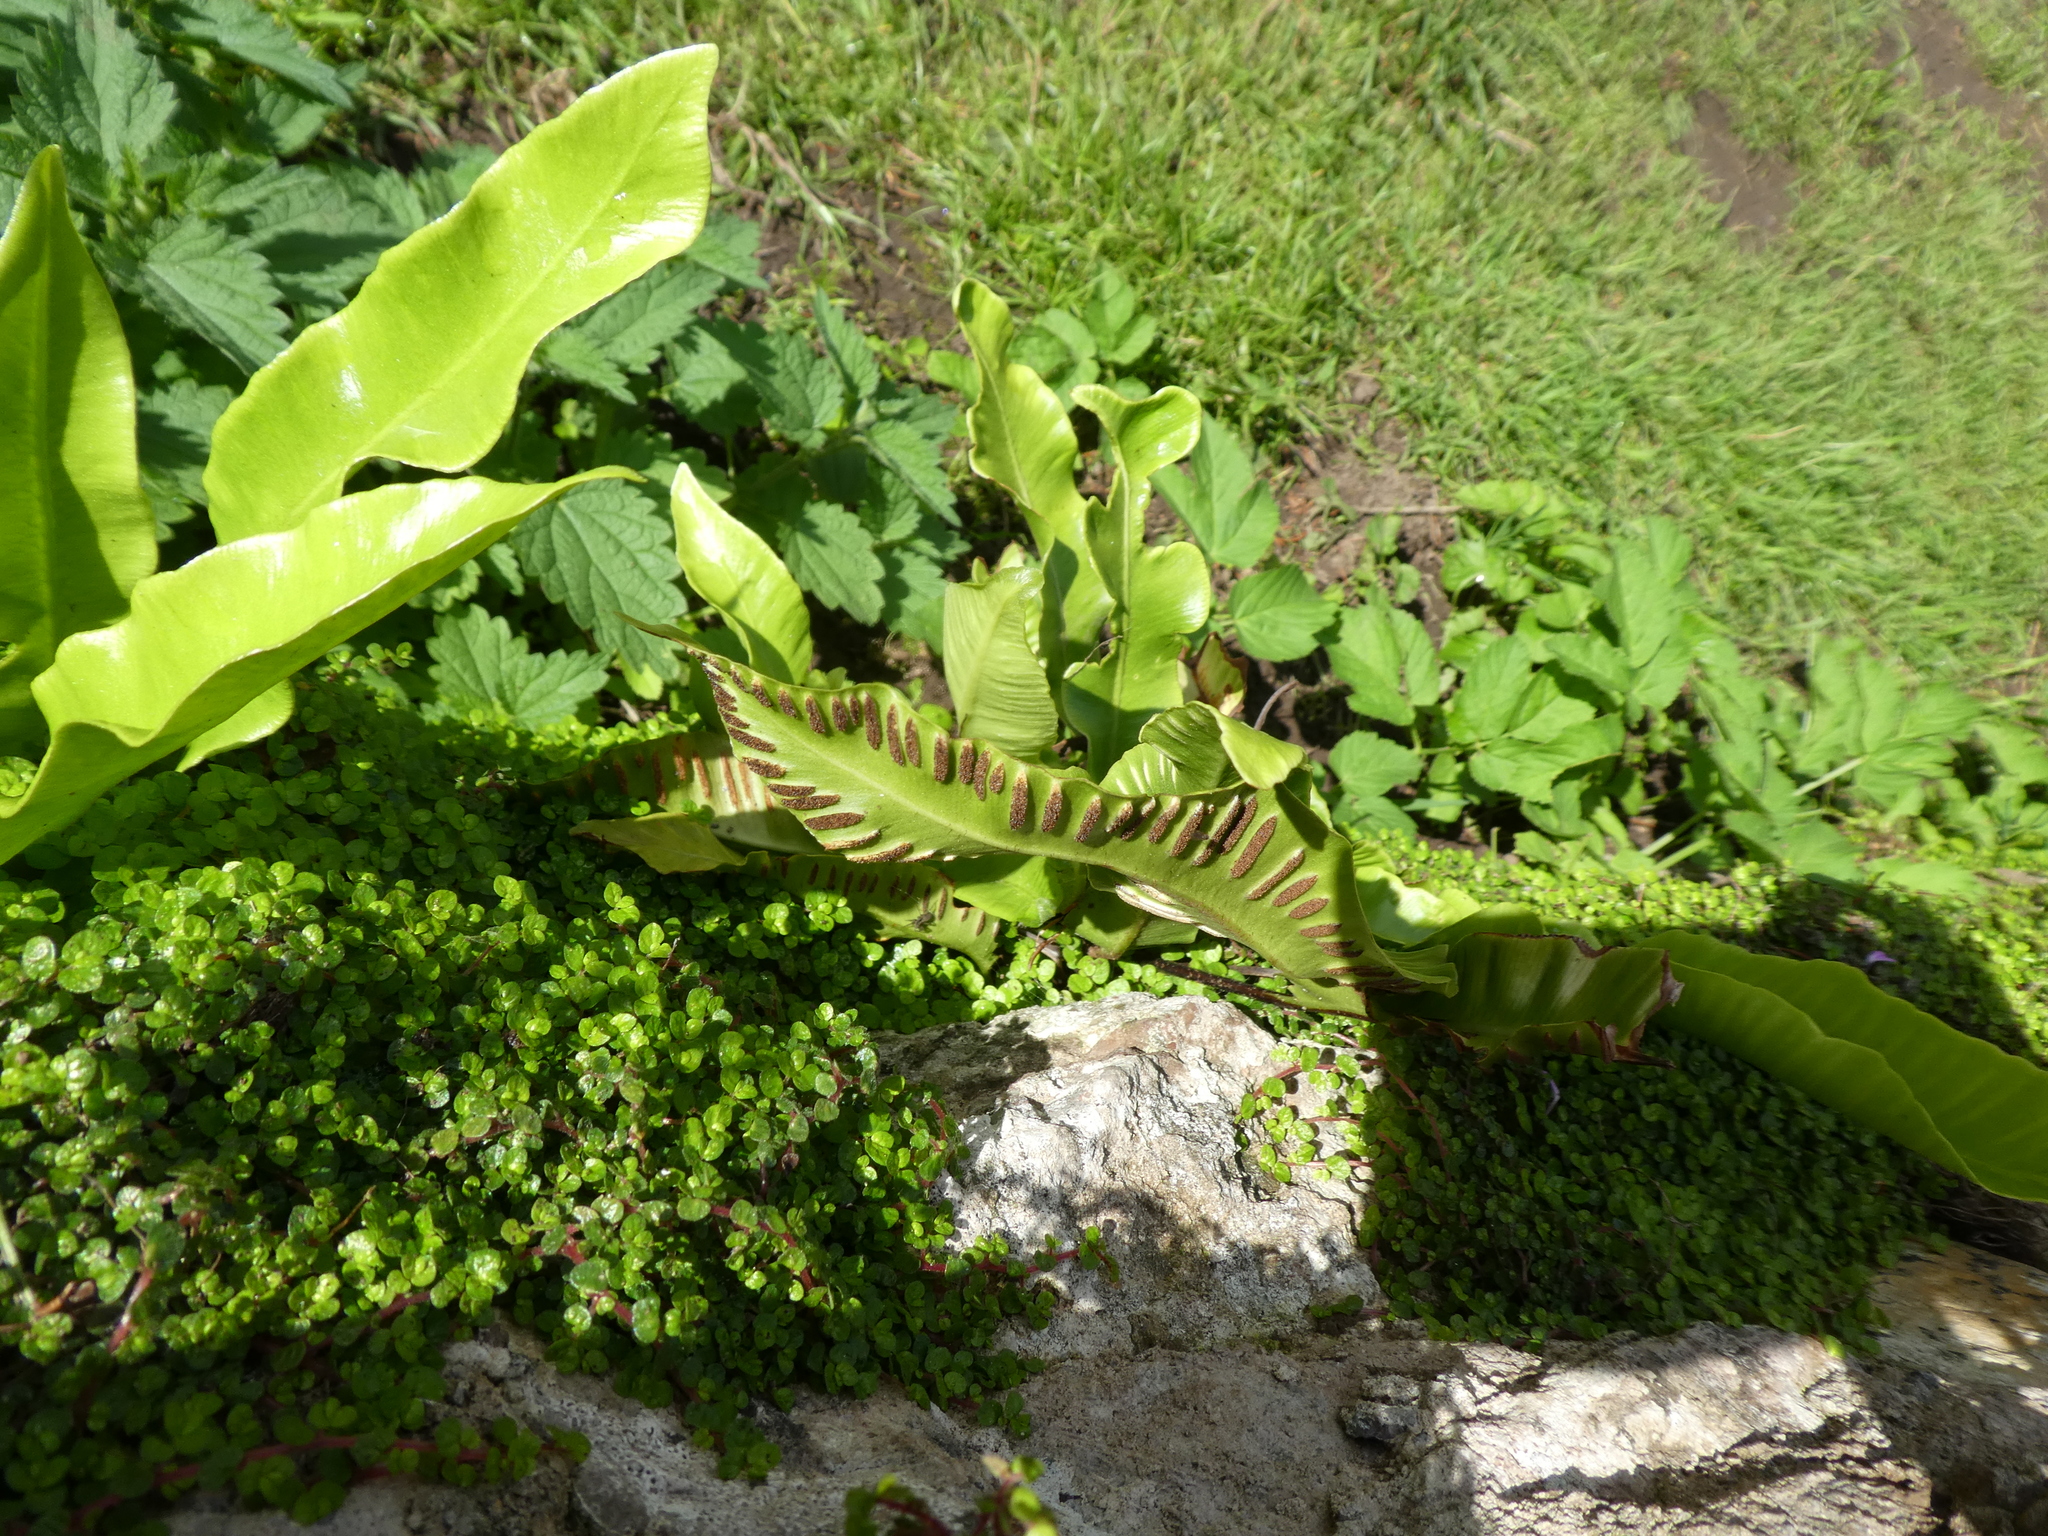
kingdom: Plantae
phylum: Tracheophyta
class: Polypodiopsida
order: Polypodiales
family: Aspleniaceae
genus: Asplenium
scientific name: Asplenium scolopendrium
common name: Hart's-tongue fern
